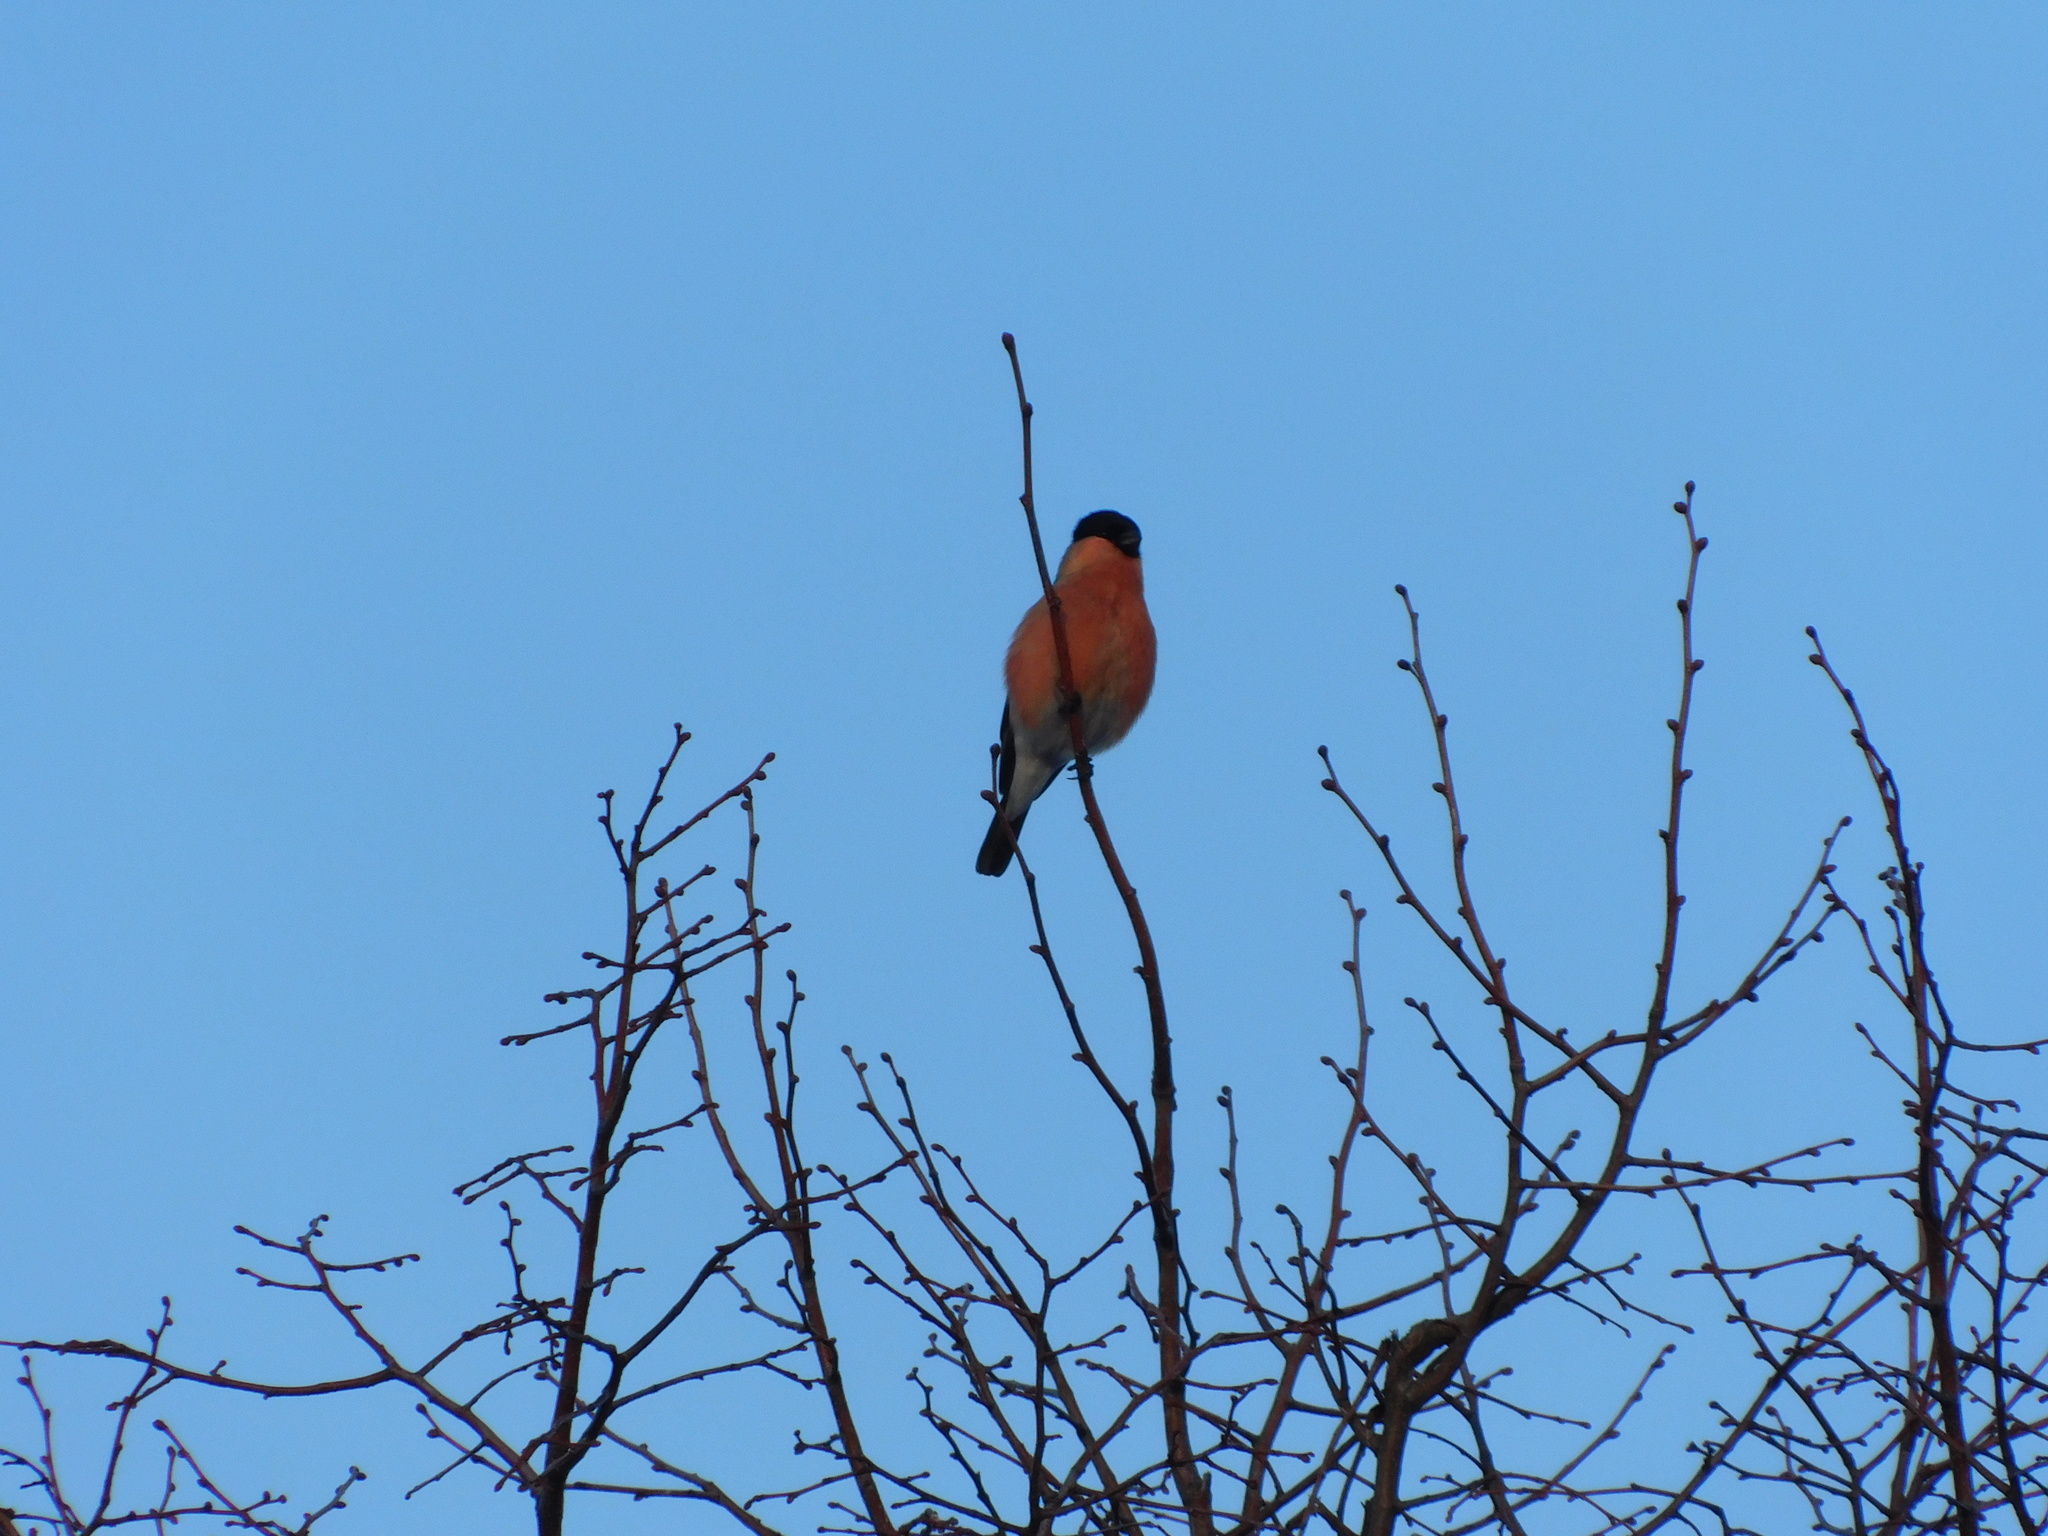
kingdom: Animalia
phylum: Chordata
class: Aves
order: Passeriformes
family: Fringillidae
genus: Pyrrhula
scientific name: Pyrrhula pyrrhula
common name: Eurasian bullfinch
